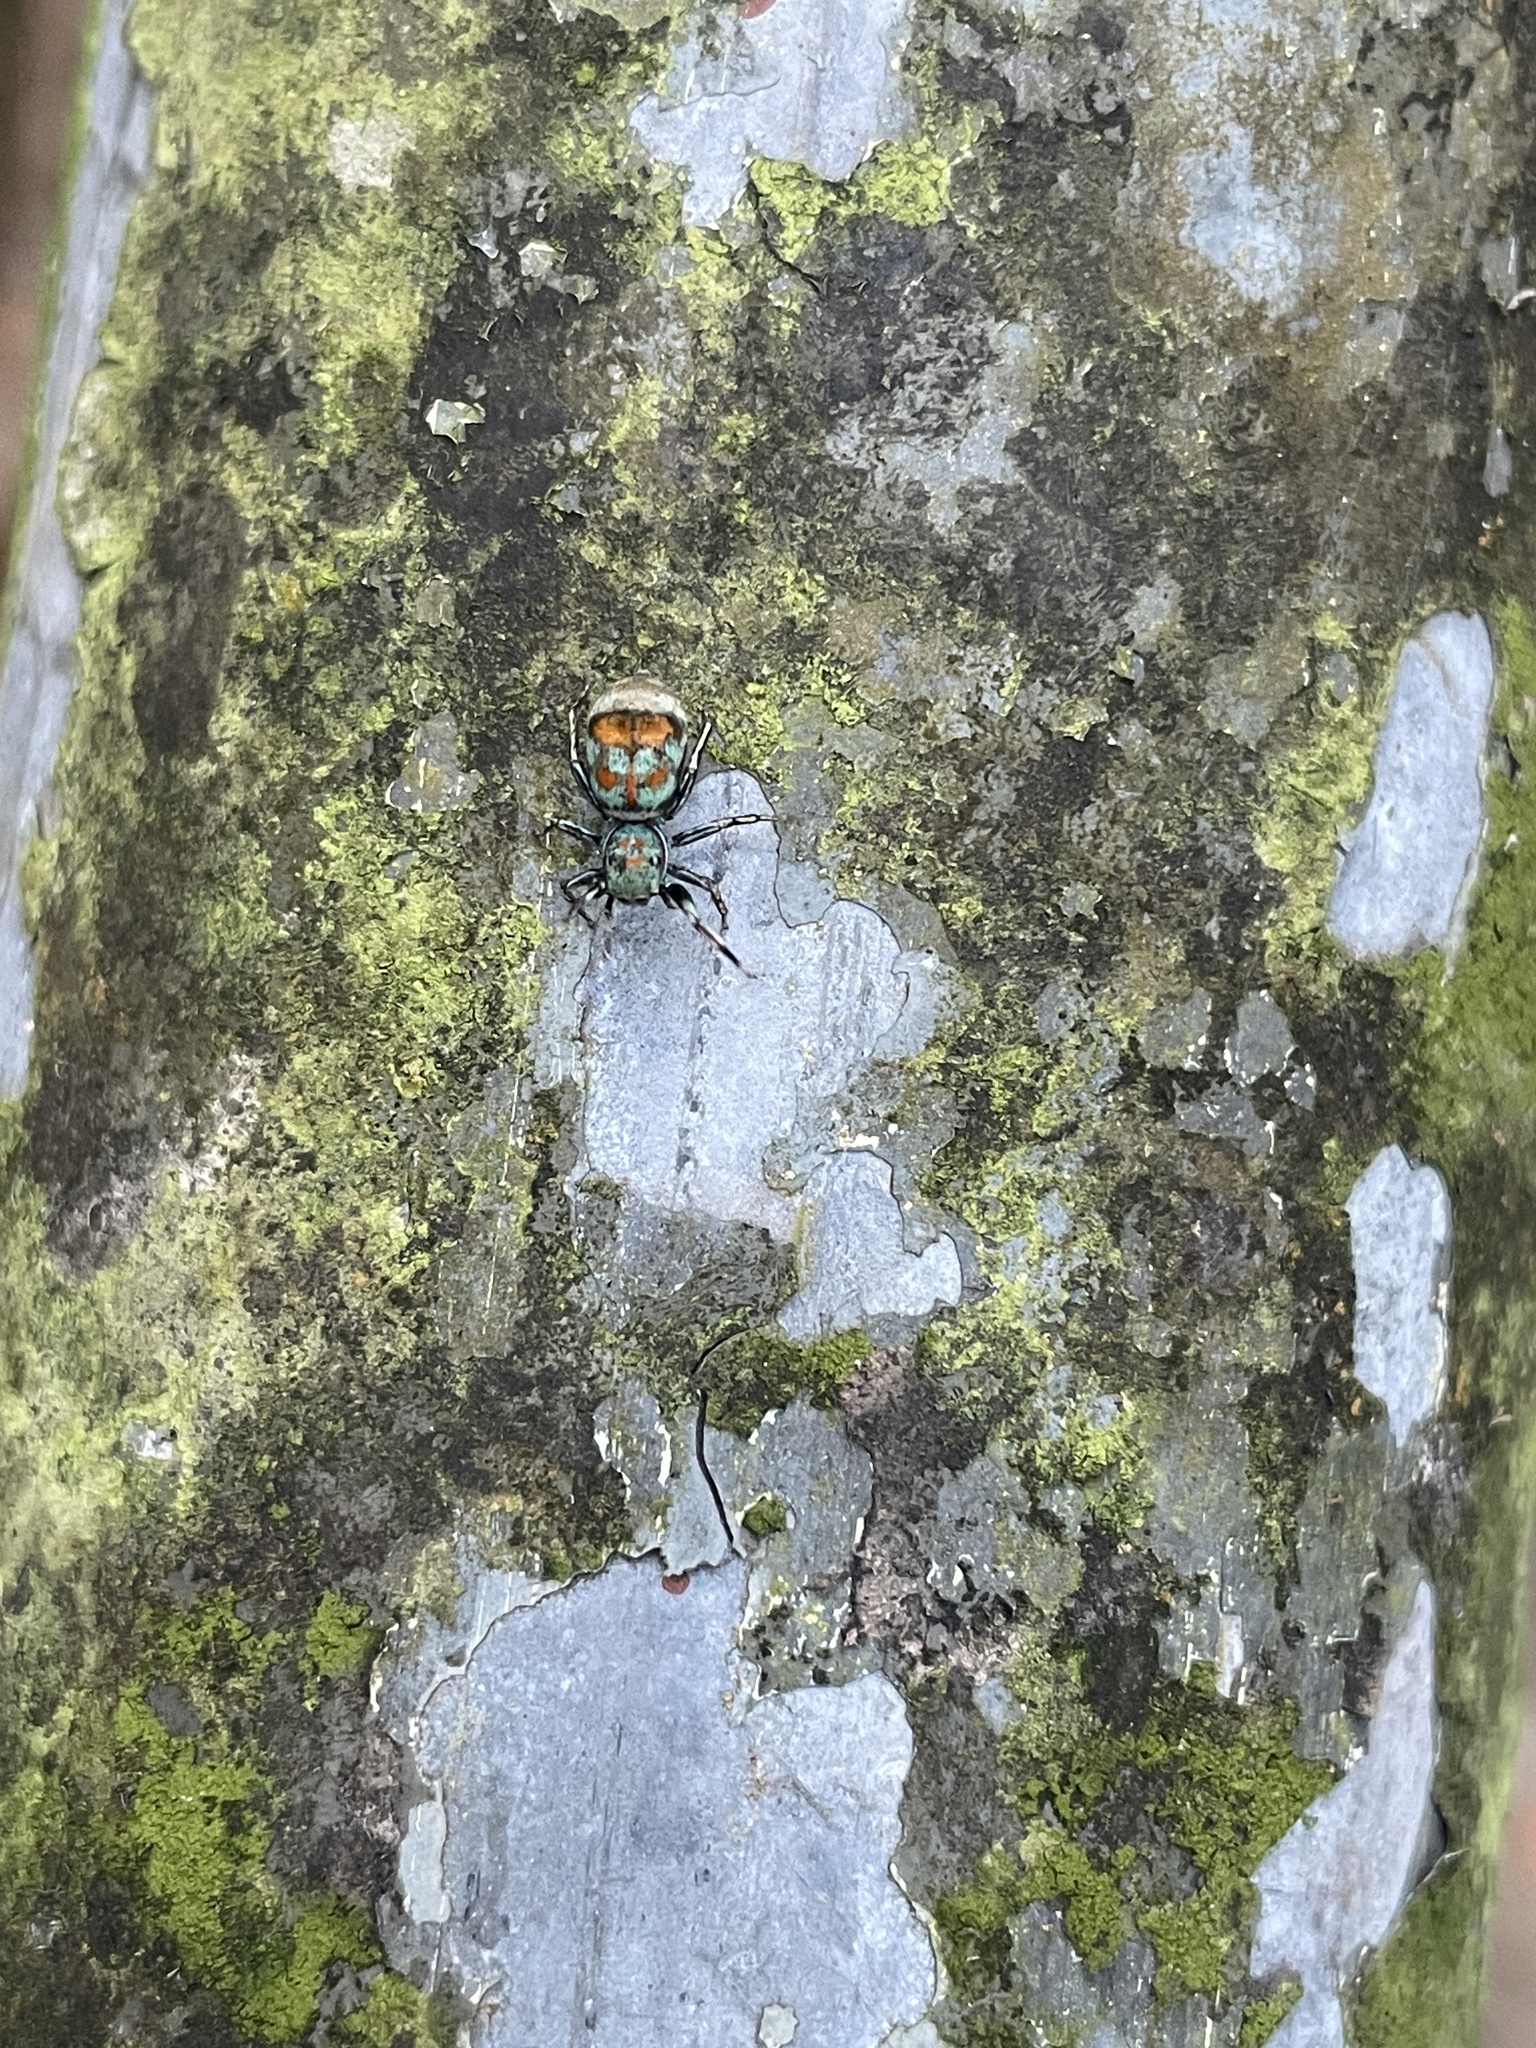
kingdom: Animalia
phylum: Arthropoda
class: Arachnida
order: Araneae
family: Salticidae
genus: Siler
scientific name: Siler collingwoodi
